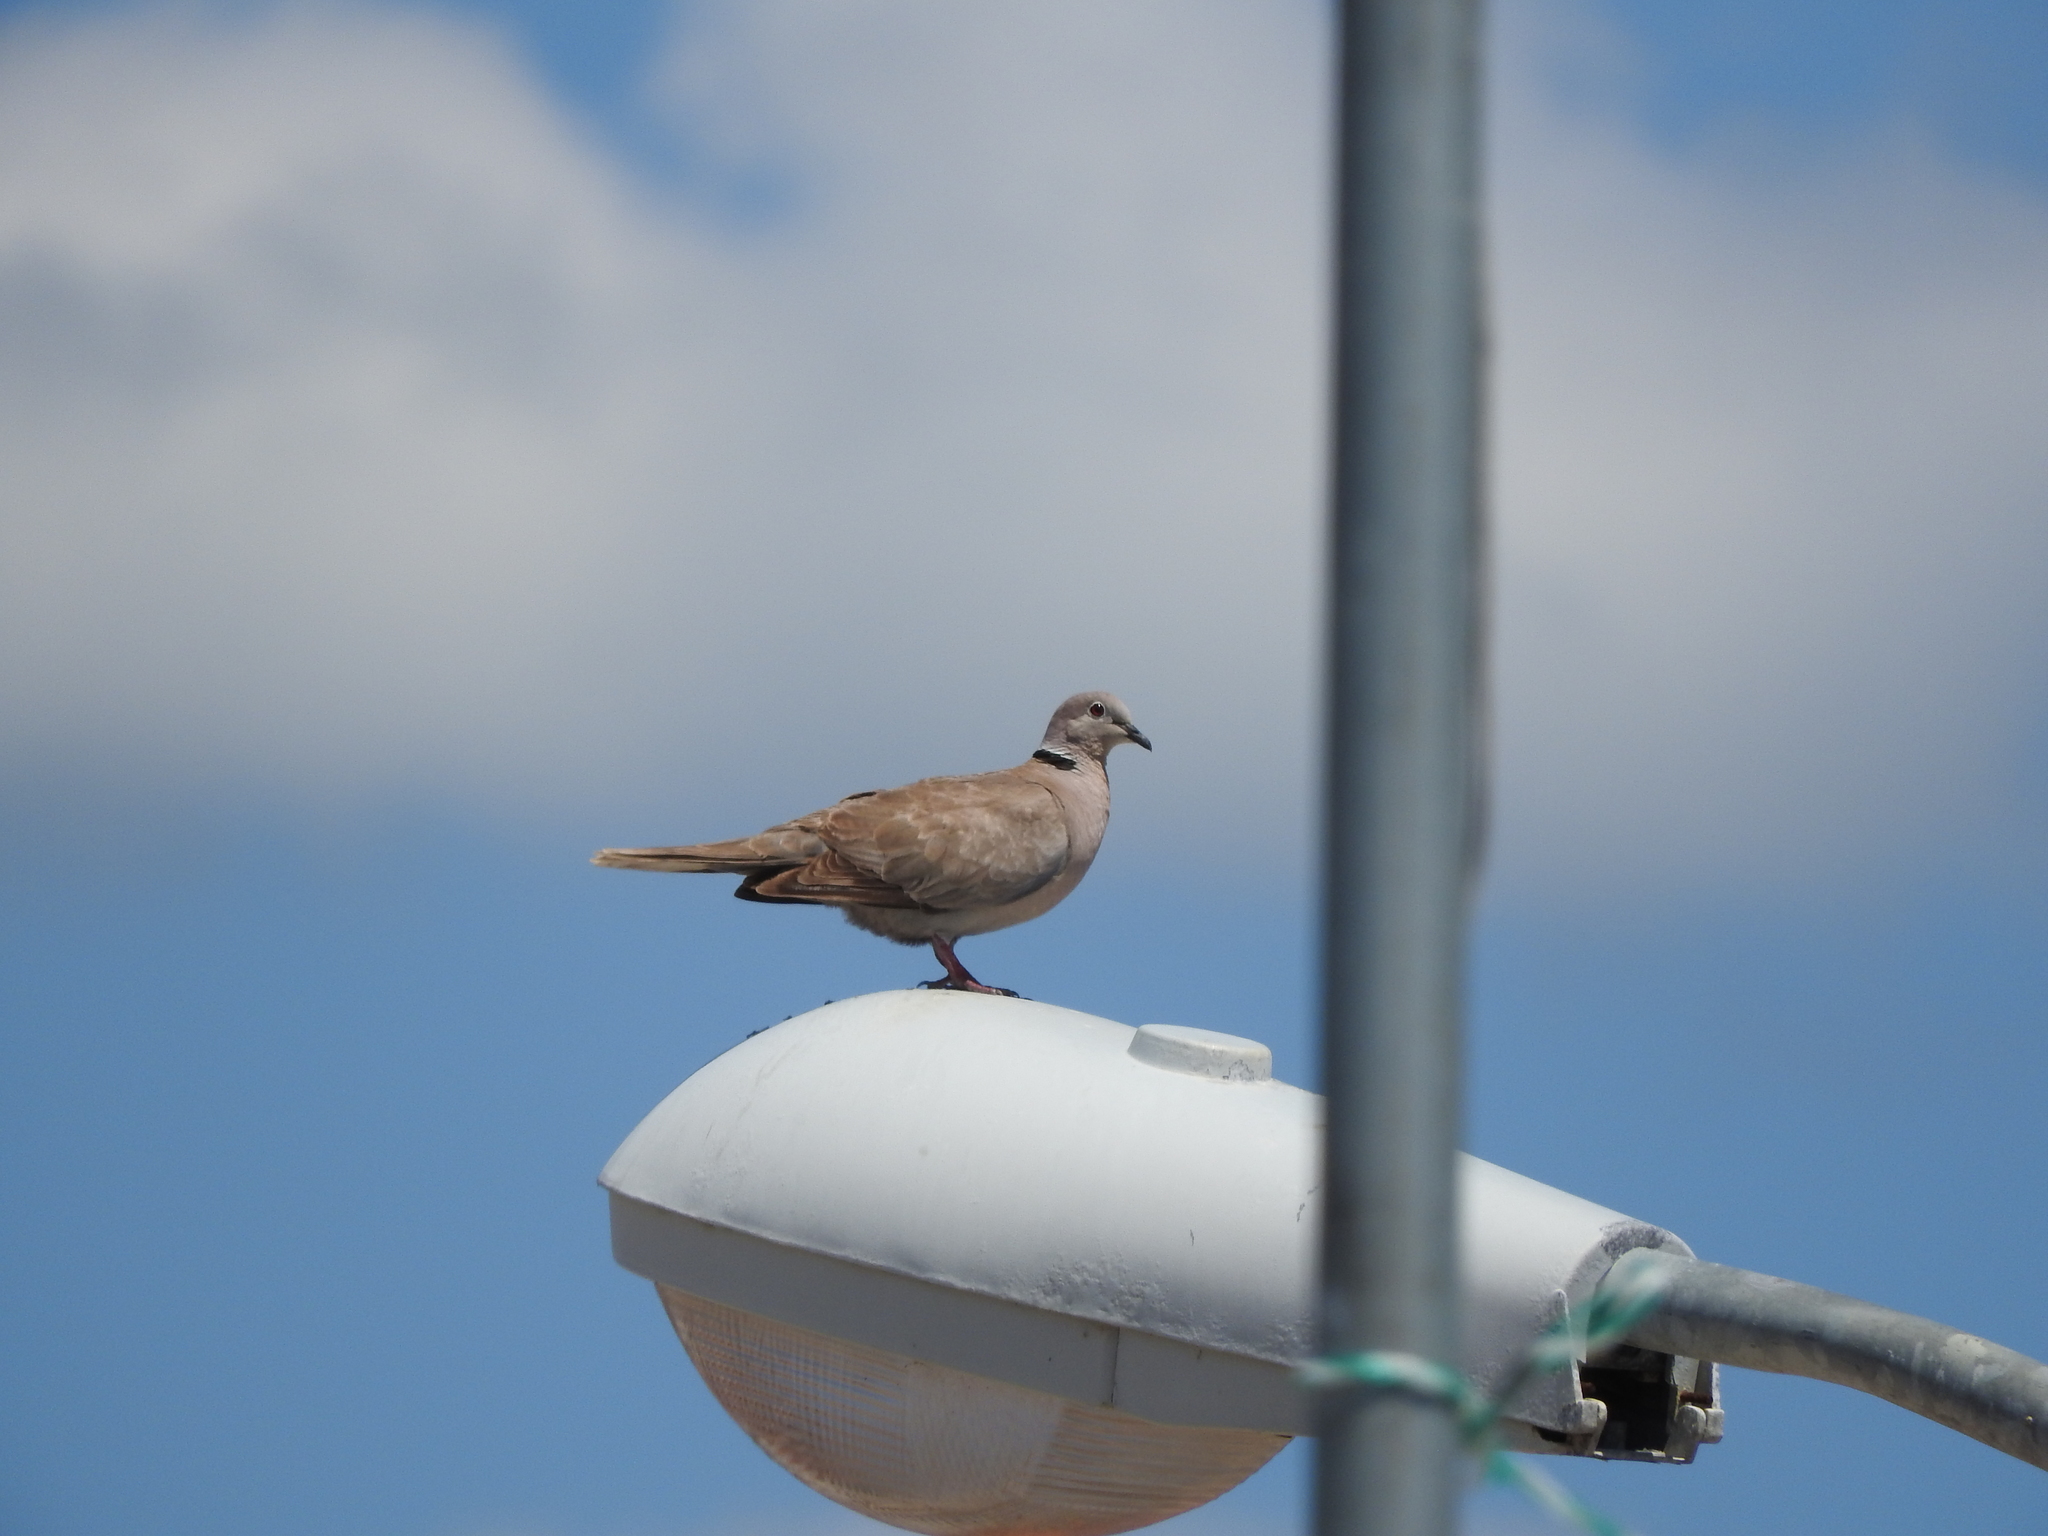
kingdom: Animalia
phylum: Chordata
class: Aves
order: Columbiformes
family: Columbidae
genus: Streptopelia
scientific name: Streptopelia decaocto
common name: Eurasian collared dove
